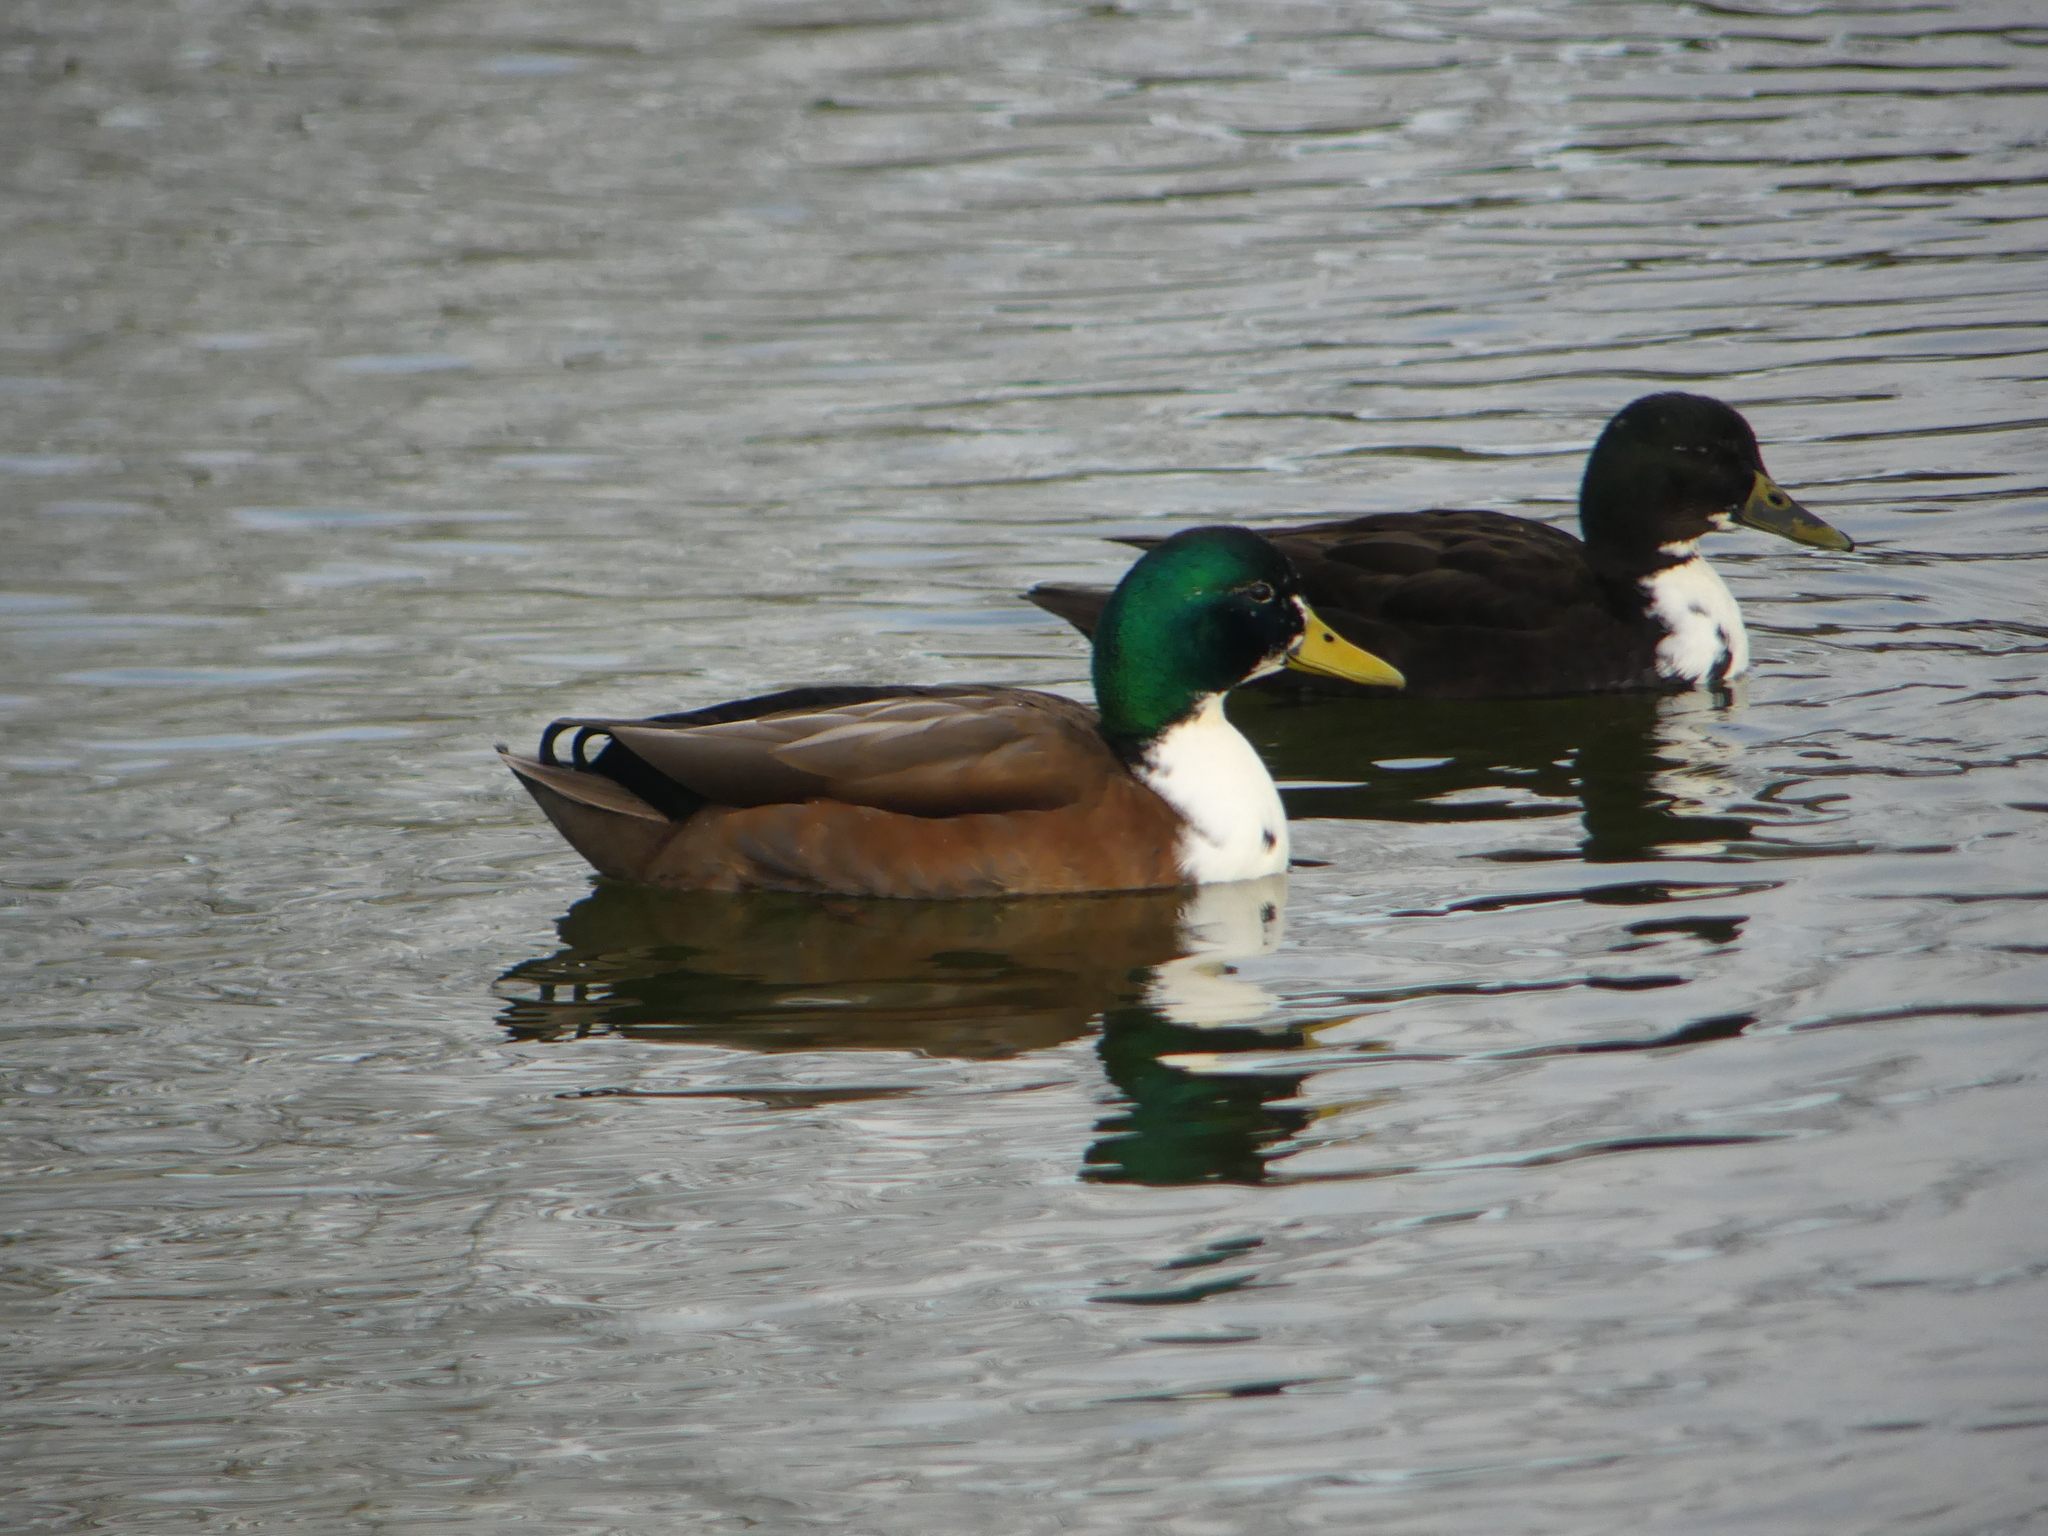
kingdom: Animalia
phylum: Chordata
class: Aves
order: Anseriformes
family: Anatidae
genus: Anas
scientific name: Anas platyrhynchos
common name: Mallard
